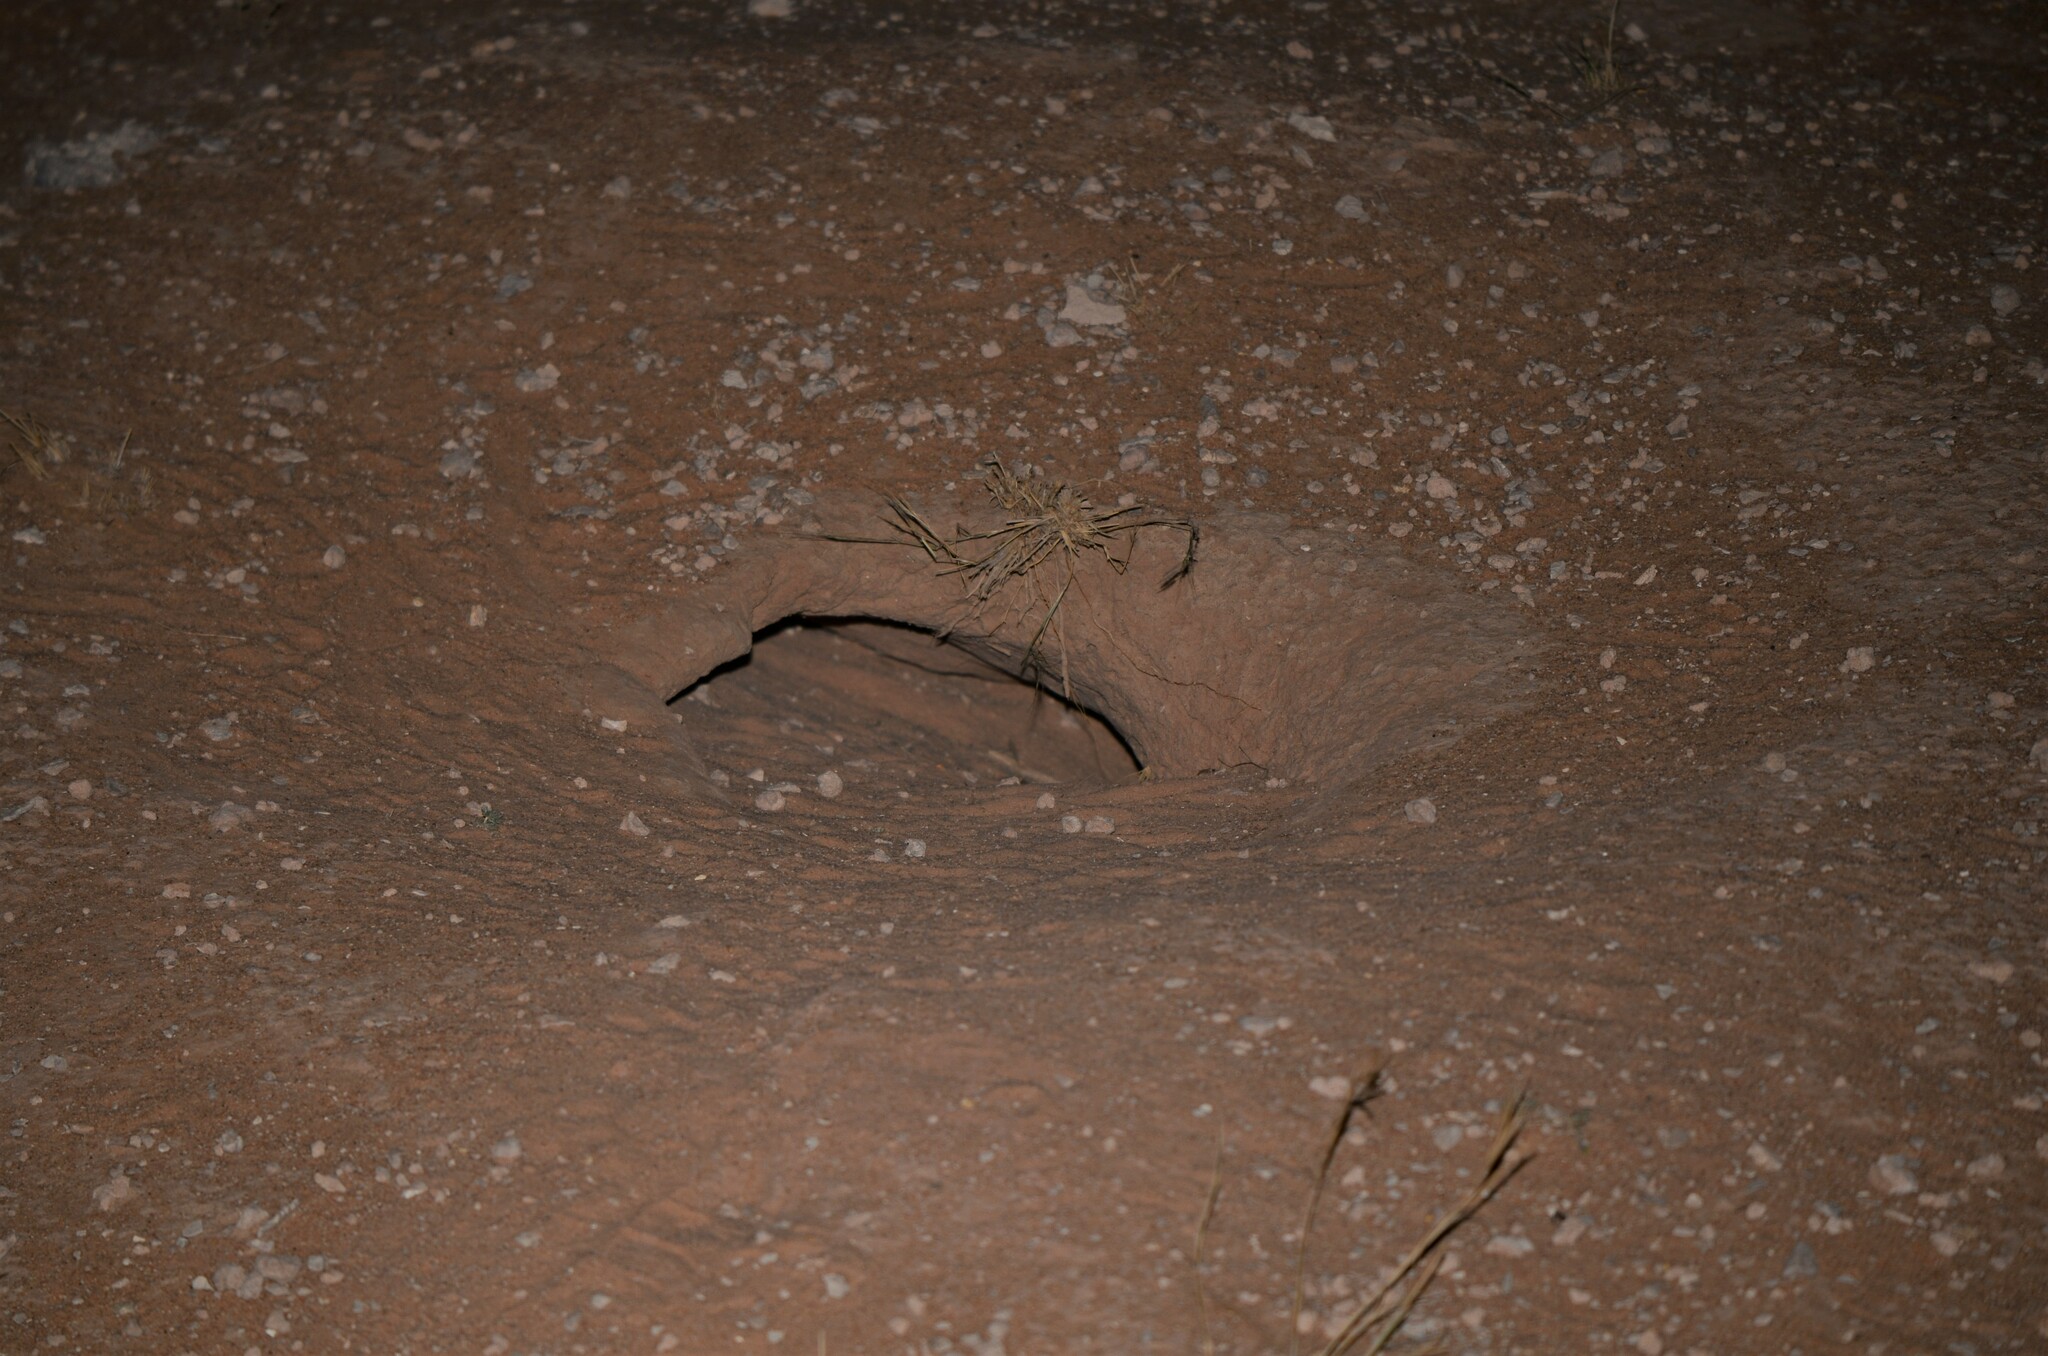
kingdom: Animalia
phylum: Chordata
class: Squamata
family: Agamidae
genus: Uromastyx
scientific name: Uromastyx aegyptia
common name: Egyptian mastigure
